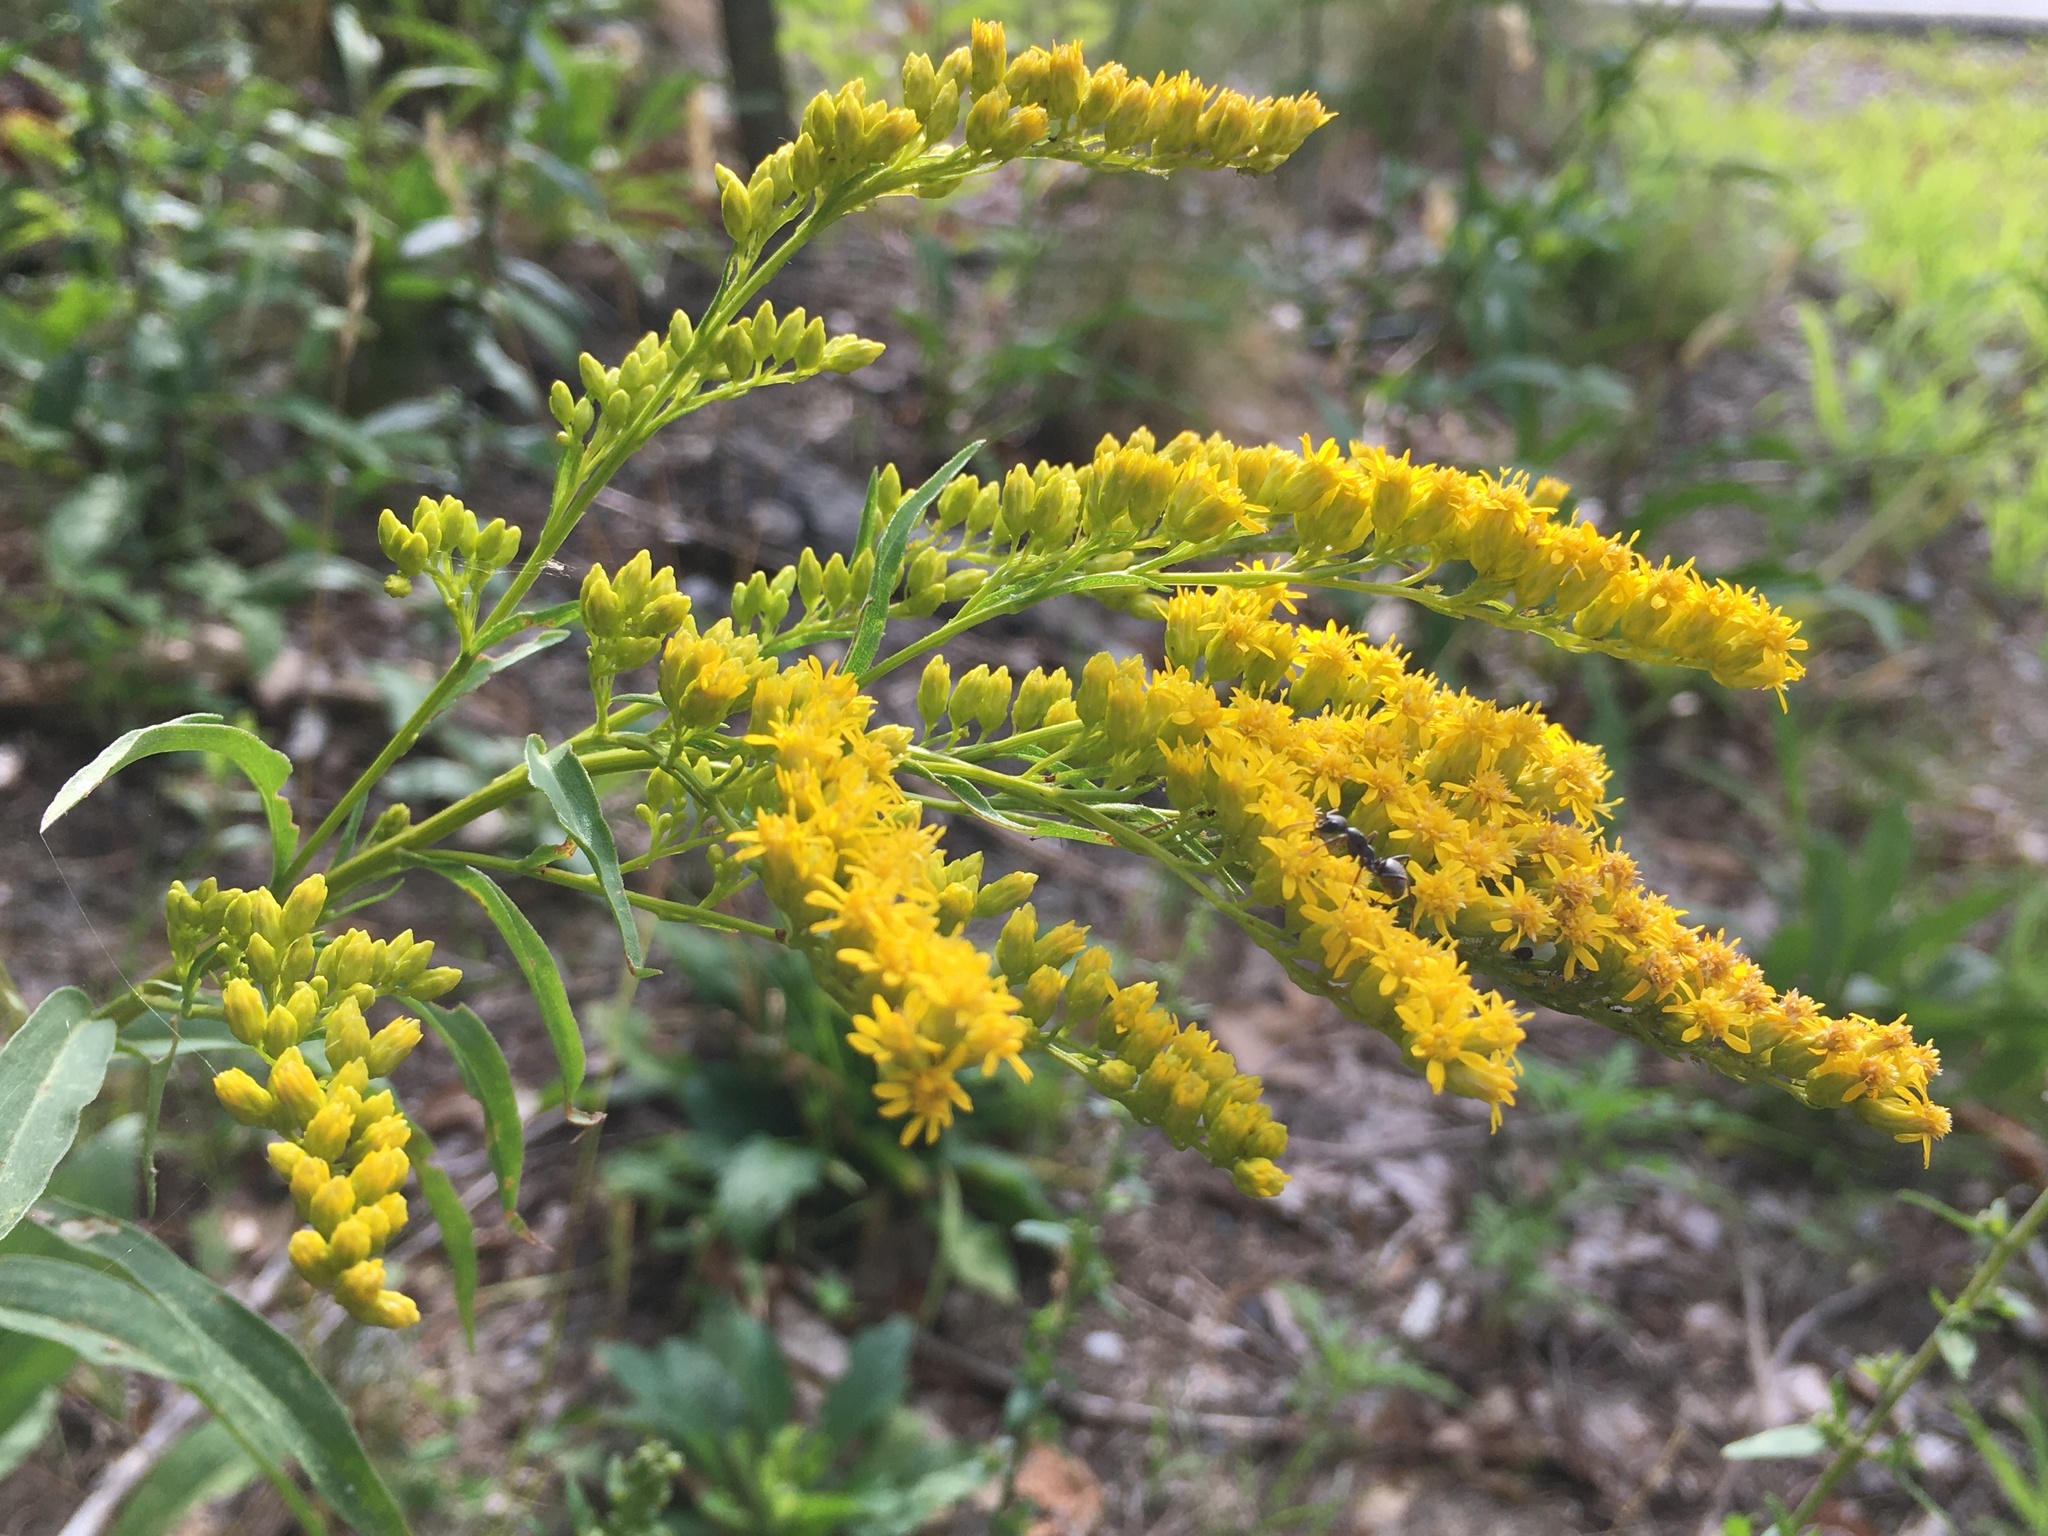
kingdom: Plantae
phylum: Tracheophyta
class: Magnoliopsida
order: Asterales
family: Asteraceae
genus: Solidago
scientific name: Solidago juncea
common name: Early goldenrod
